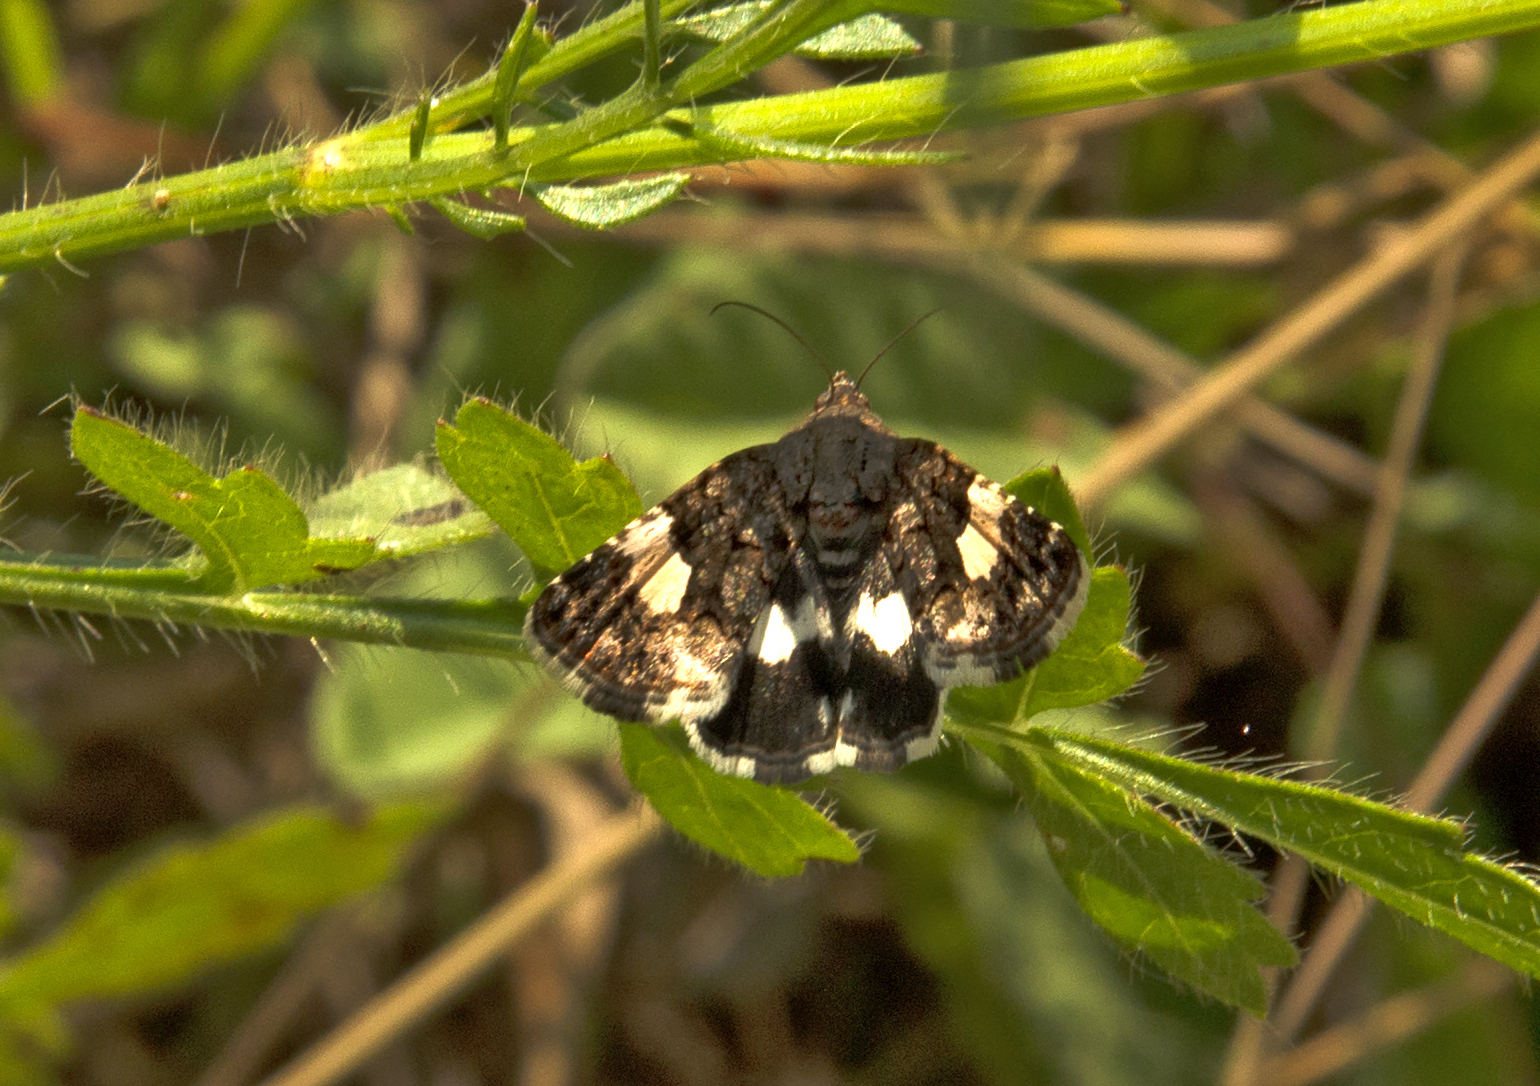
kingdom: Animalia
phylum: Arthropoda
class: Insecta
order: Lepidoptera
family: Erebidae
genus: Tyta
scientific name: Tyta luctuosa
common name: Four-spotted
